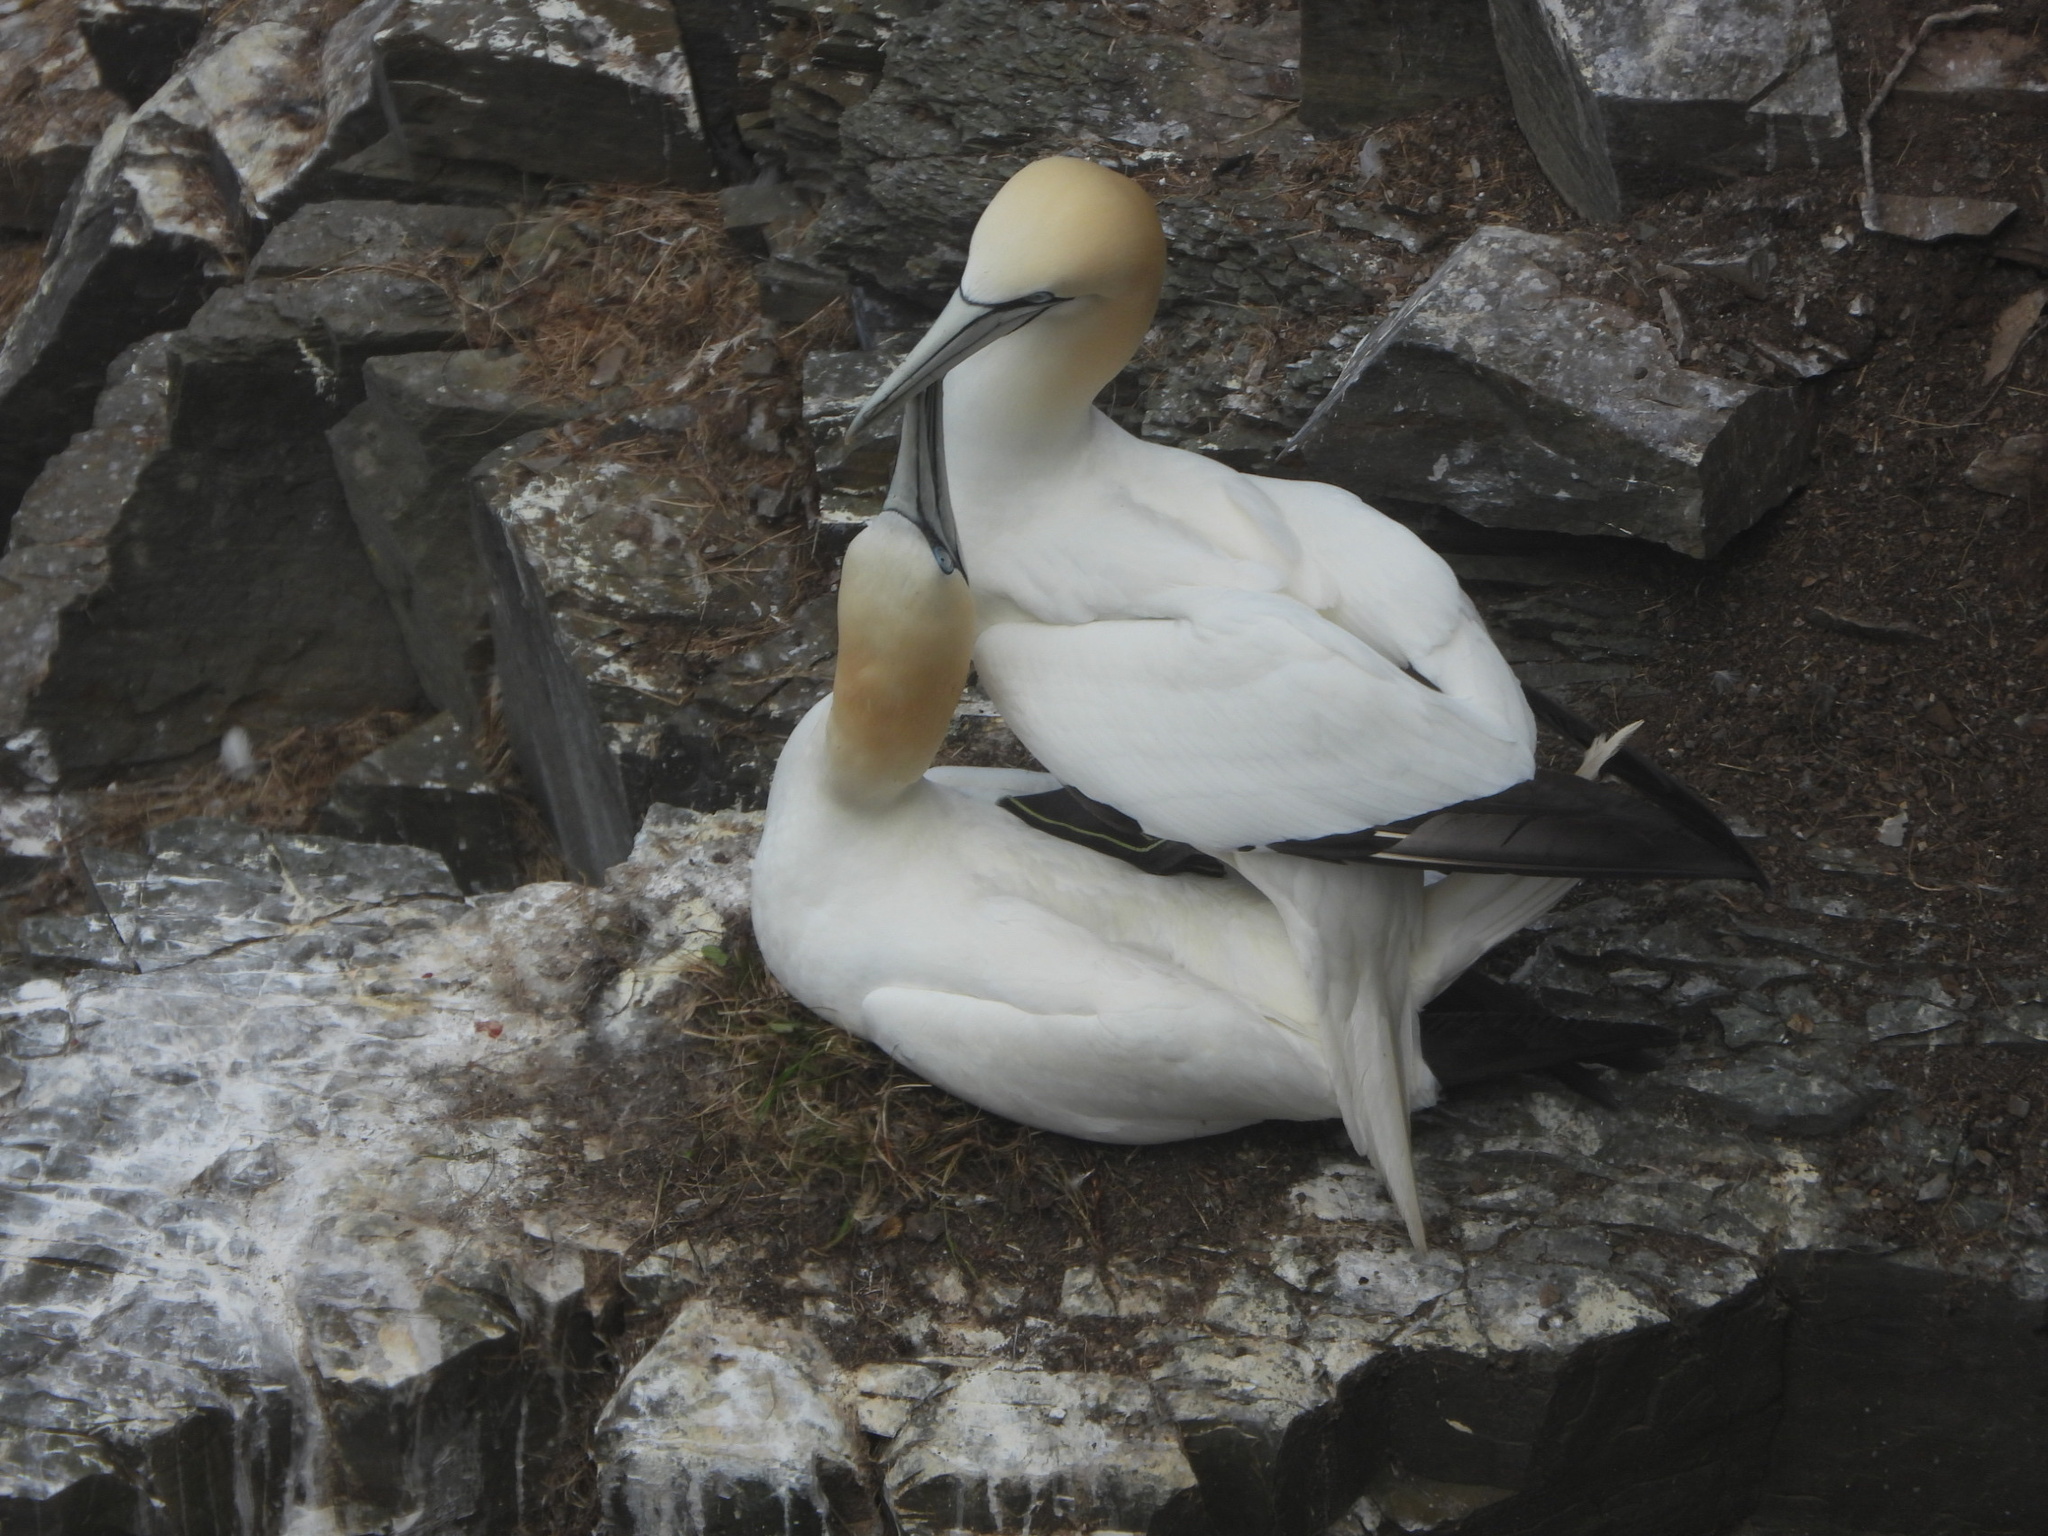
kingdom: Animalia
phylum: Chordata
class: Aves
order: Suliformes
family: Sulidae
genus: Morus
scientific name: Morus bassanus
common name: Northern gannet
